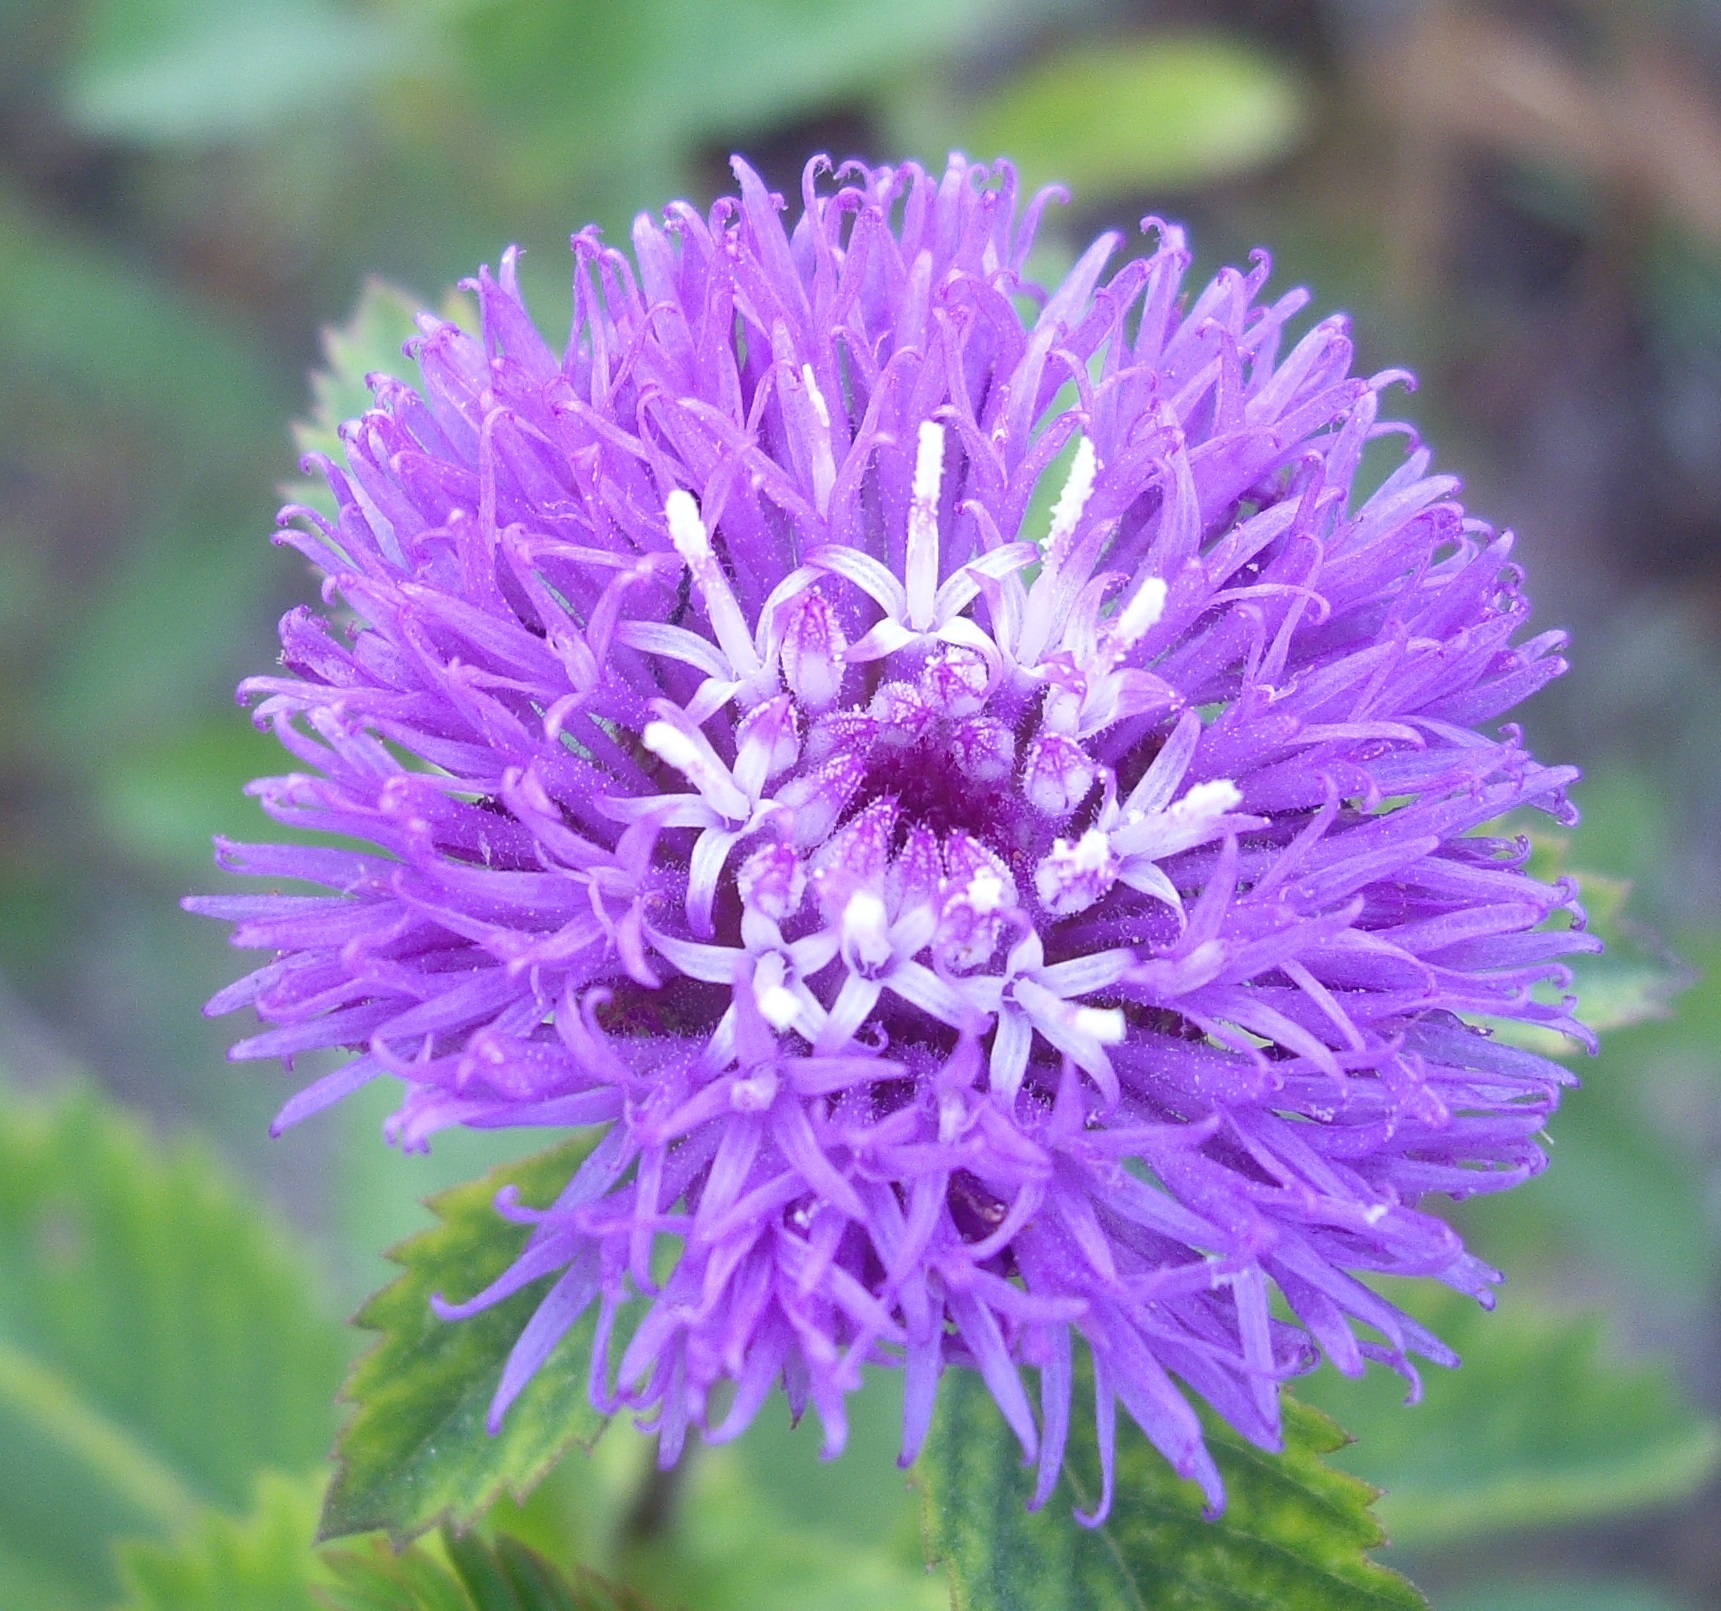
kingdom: Plantae
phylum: Tracheophyta
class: Magnoliopsida
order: Asterales
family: Asteraceae
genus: Centratherum
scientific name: Centratherum punctatum
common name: Larkdaisy
